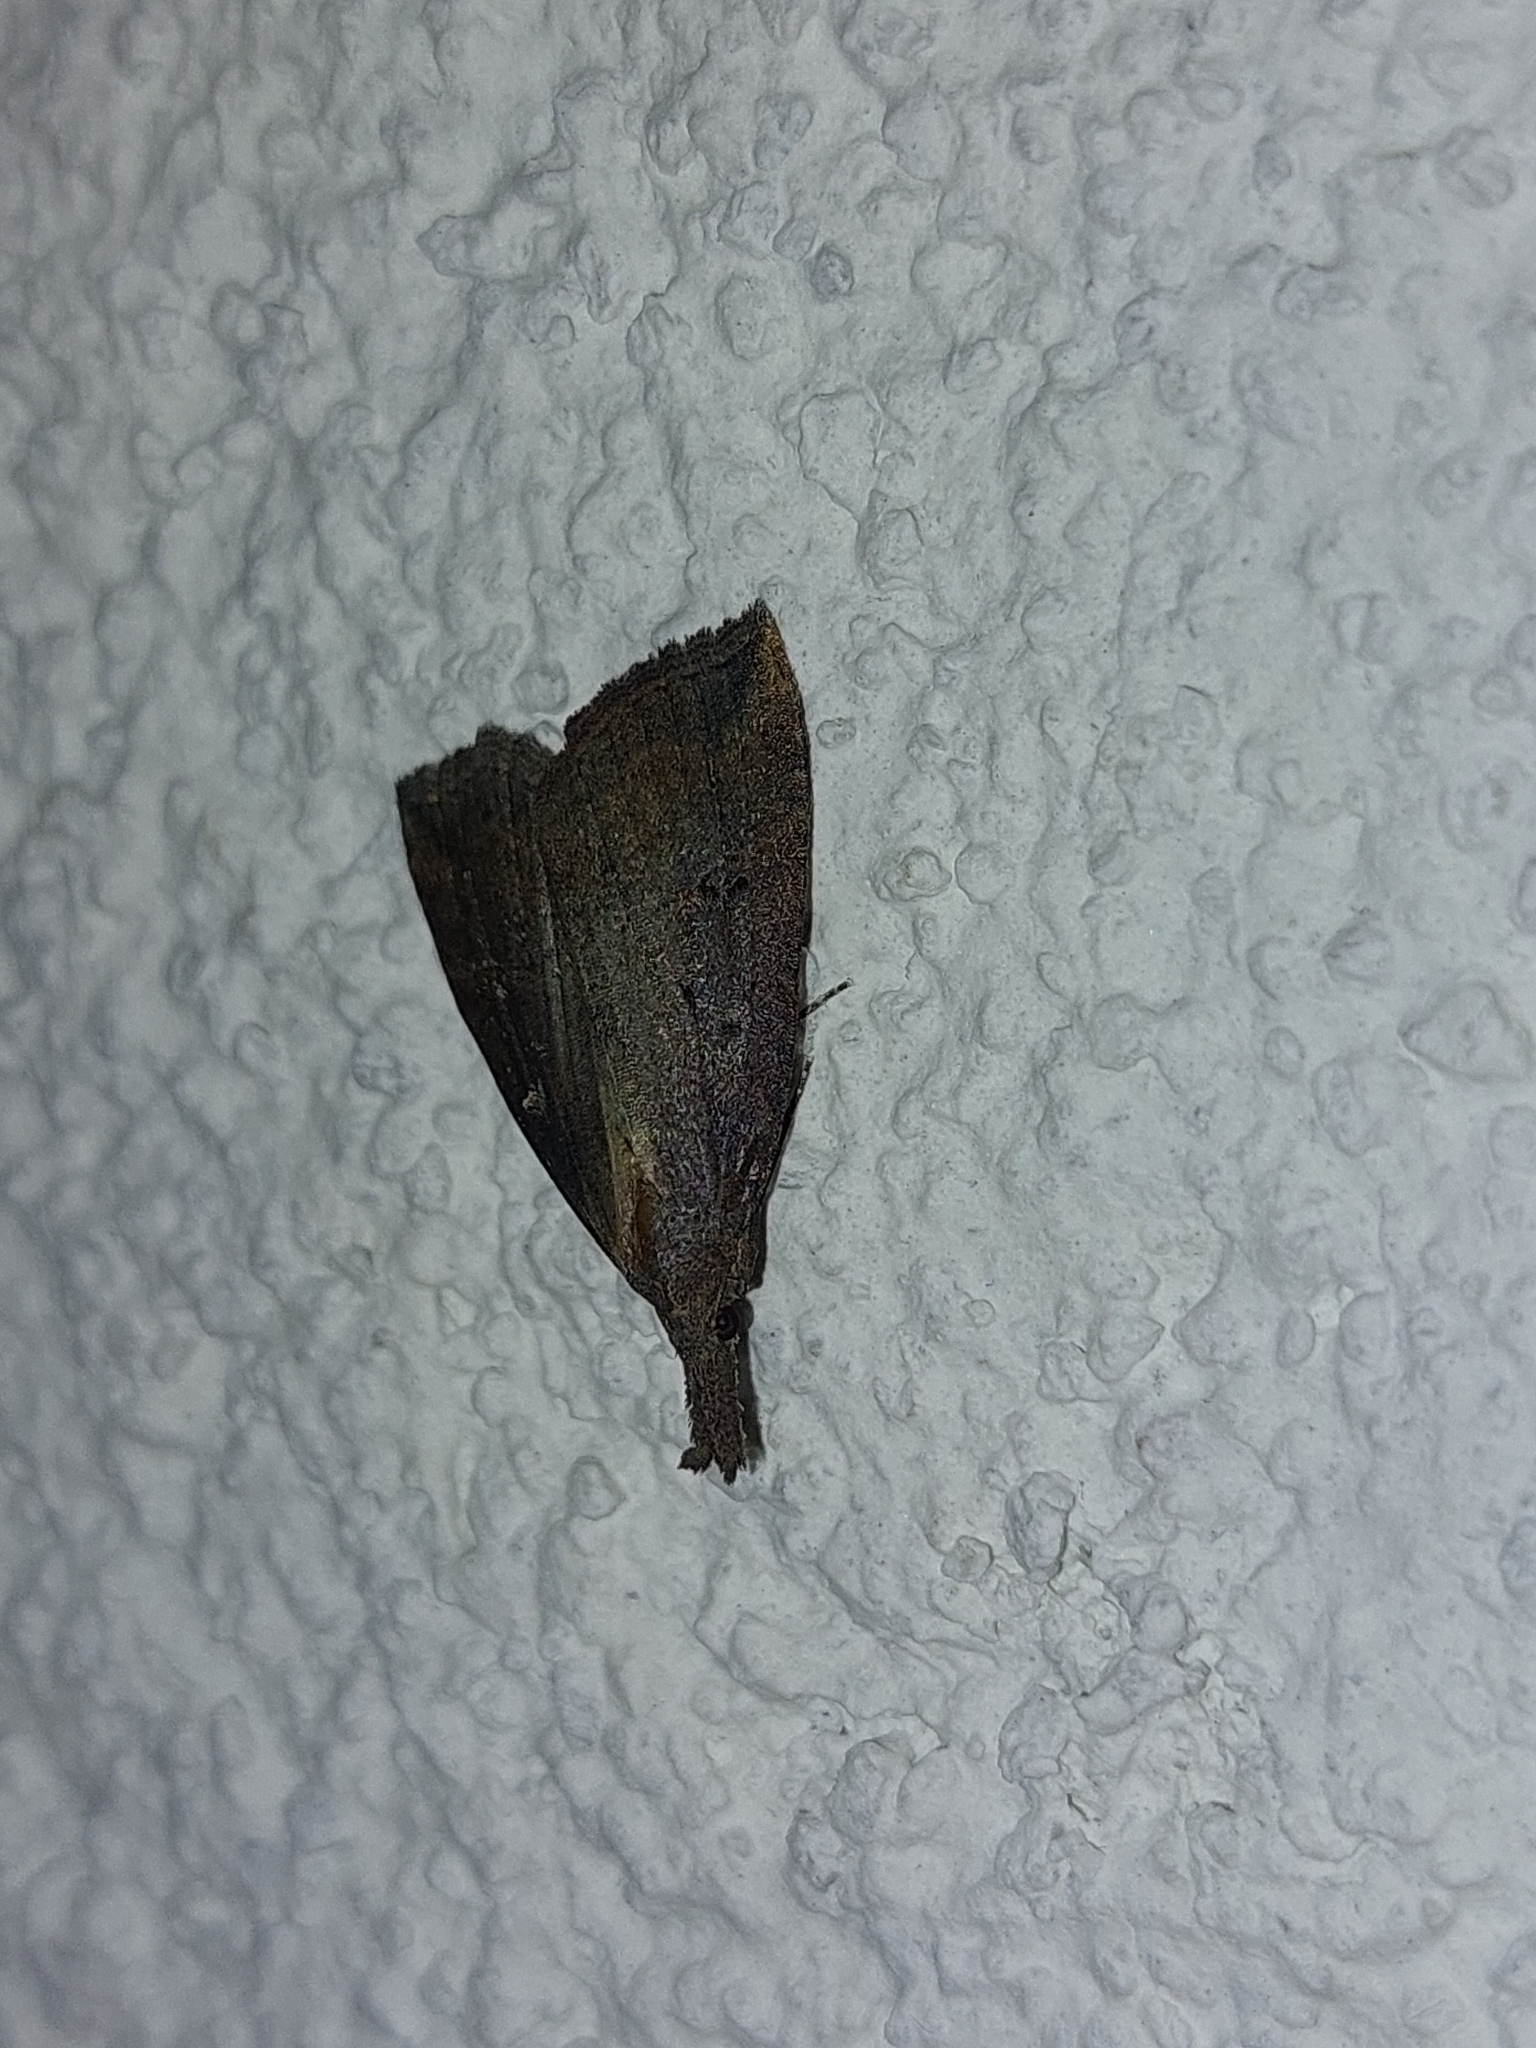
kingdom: Animalia
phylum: Arthropoda
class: Insecta
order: Lepidoptera
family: Erebidae
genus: Hypena
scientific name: Hypena rostralis
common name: Buttoned snout
